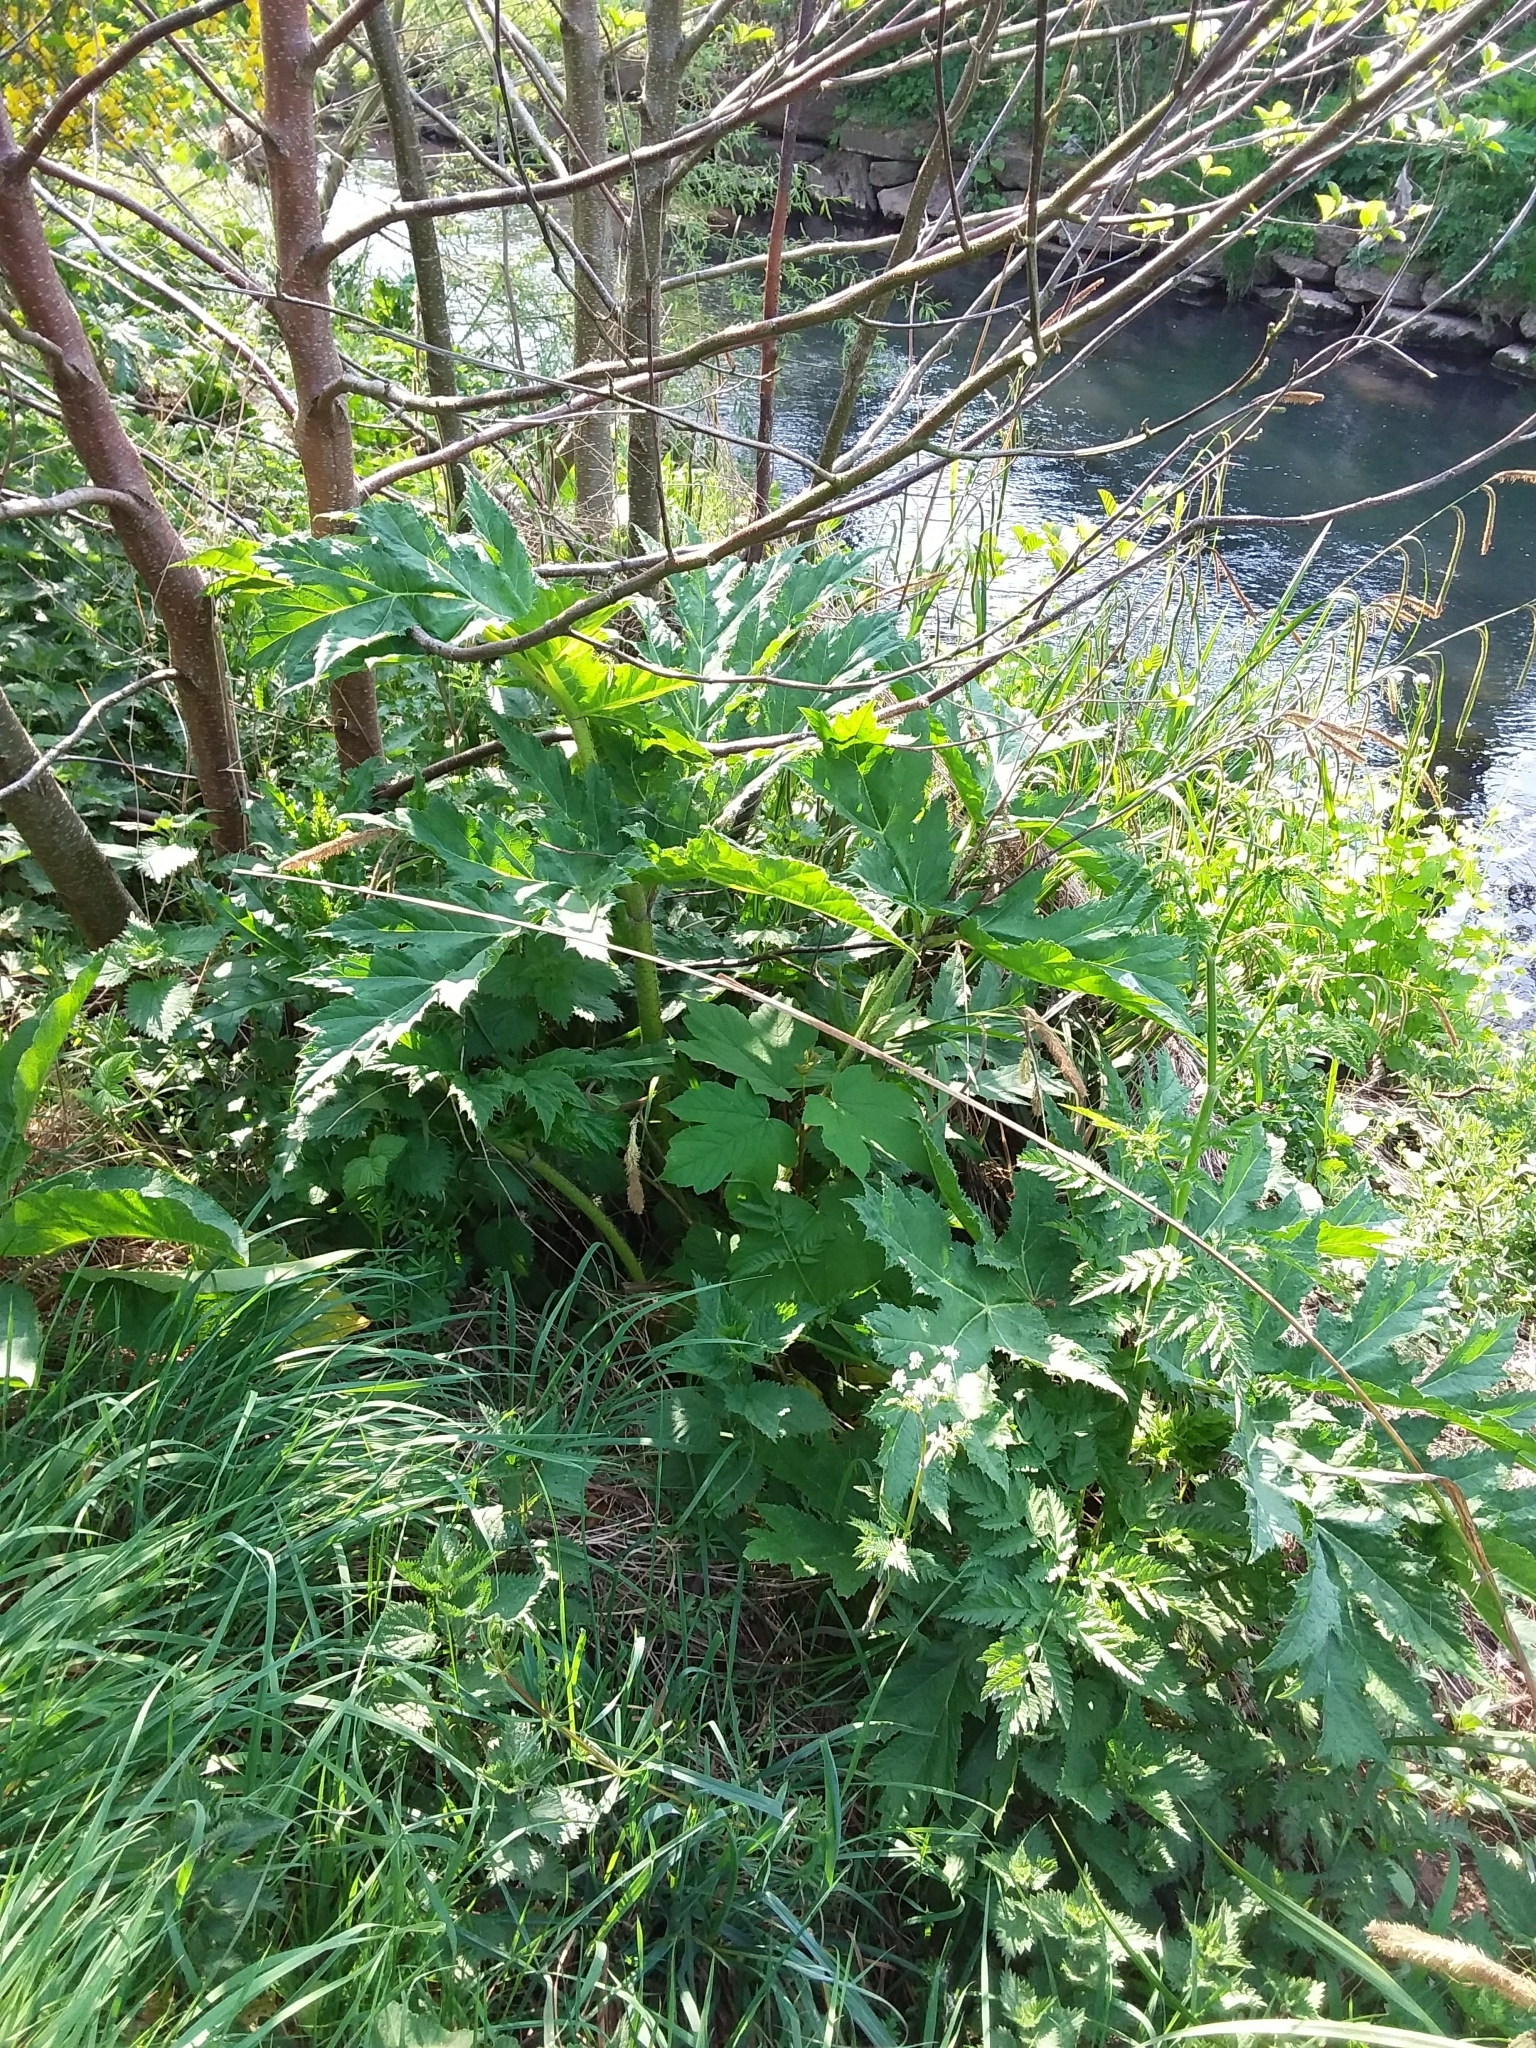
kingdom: Plantae
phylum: Tracheophyta
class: Magnoliopsida
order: Apiales
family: Apiaceae
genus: Heracleum
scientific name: Heracleum mantegazzianum
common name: Giant hogweed
